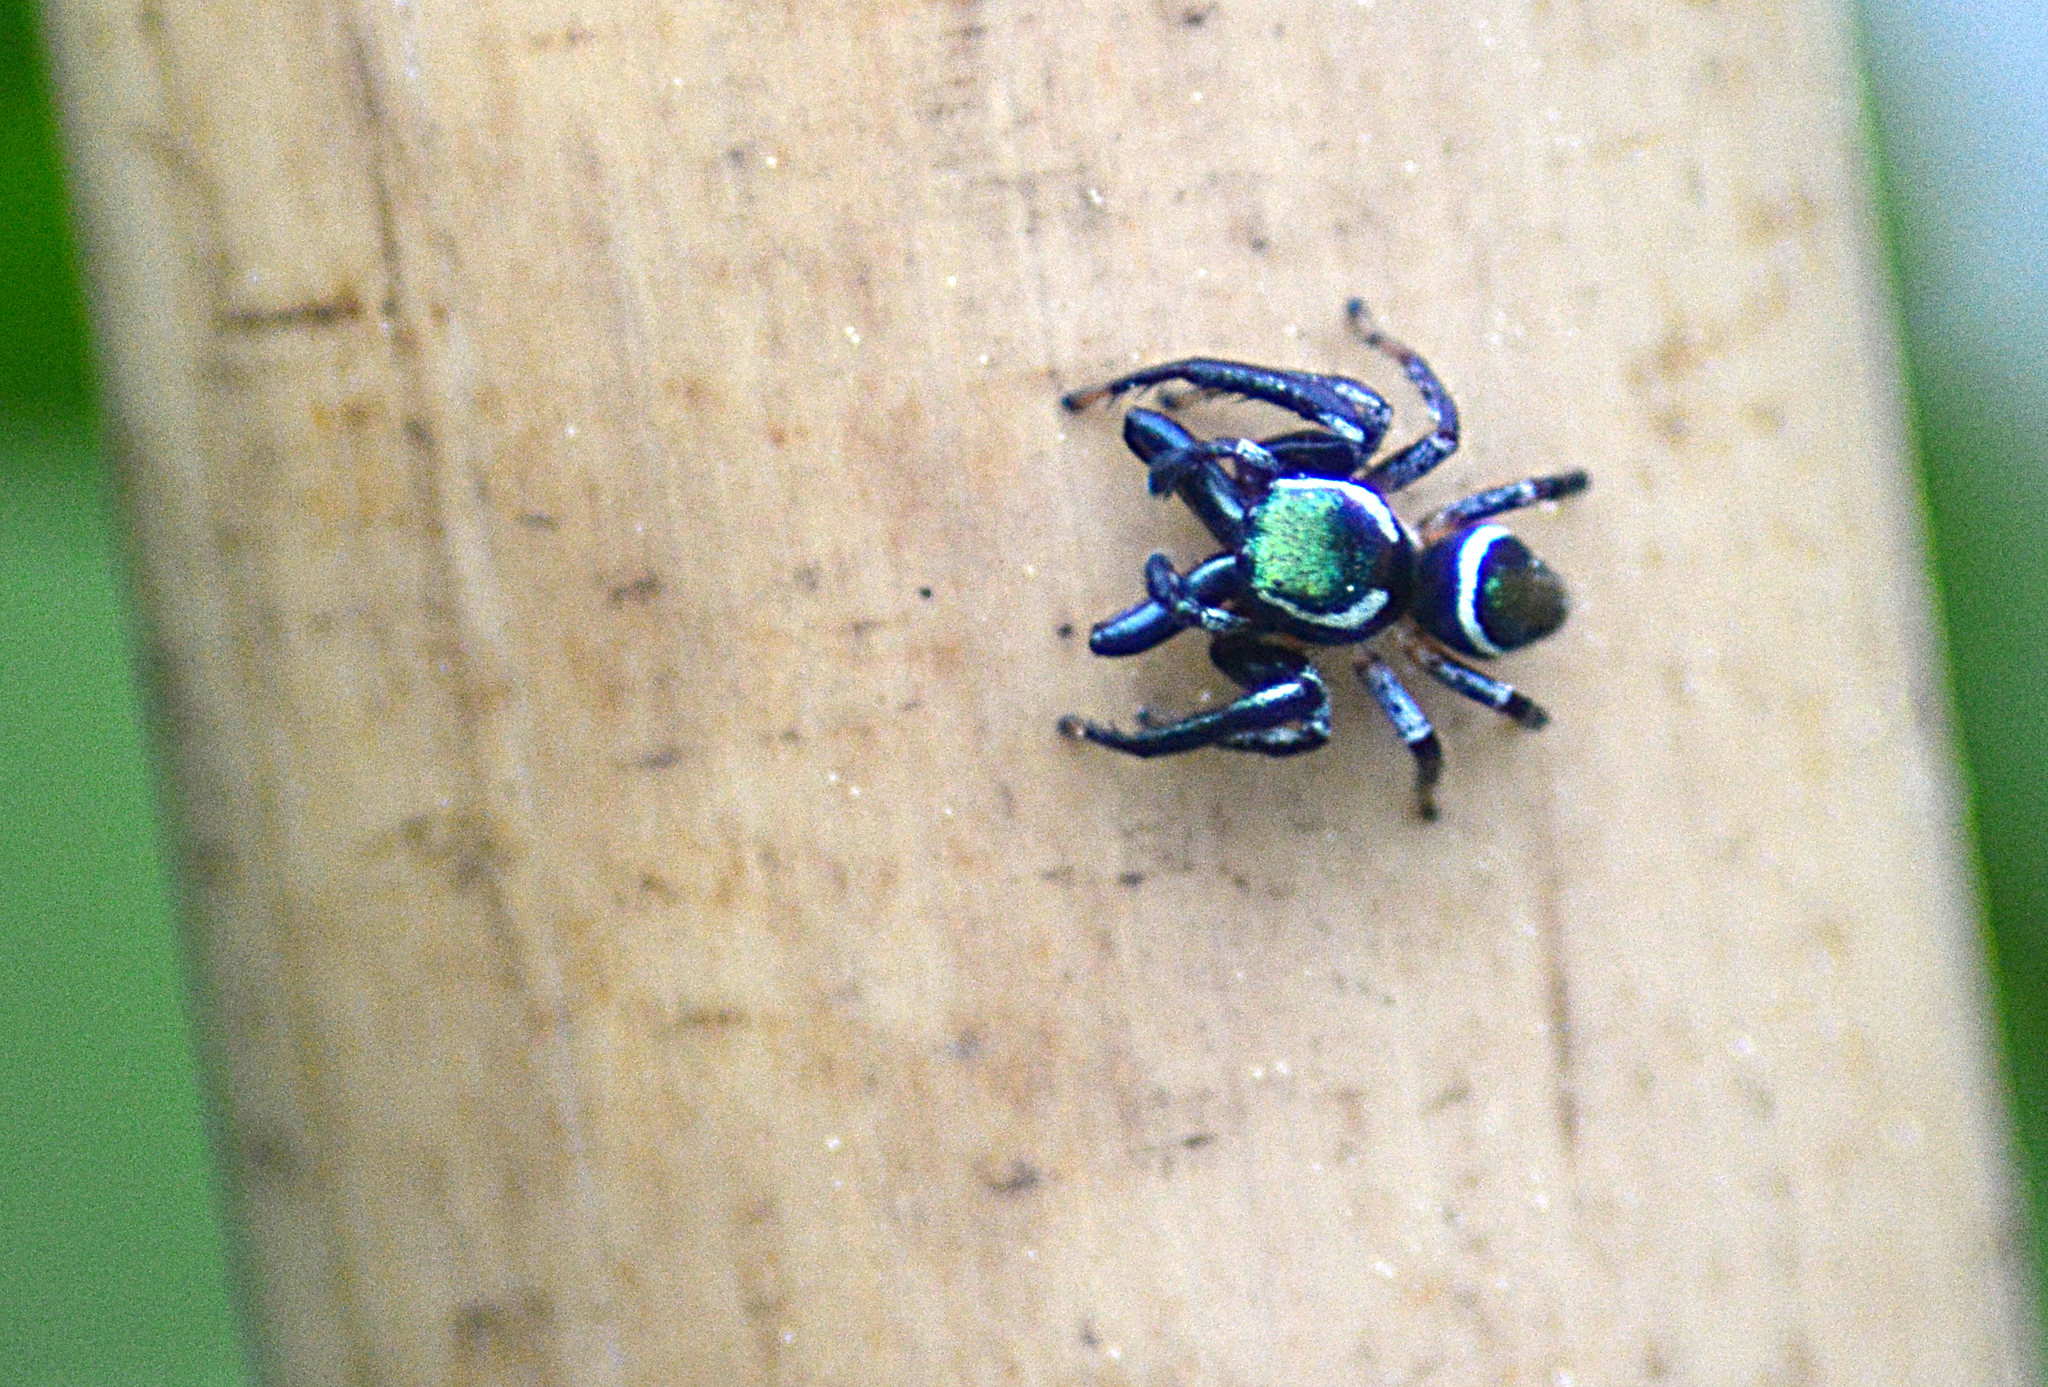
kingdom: Animalia
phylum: Arthropoda
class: Arachnida
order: Araneae
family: Salticidae
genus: Messua
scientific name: Messua limbata
